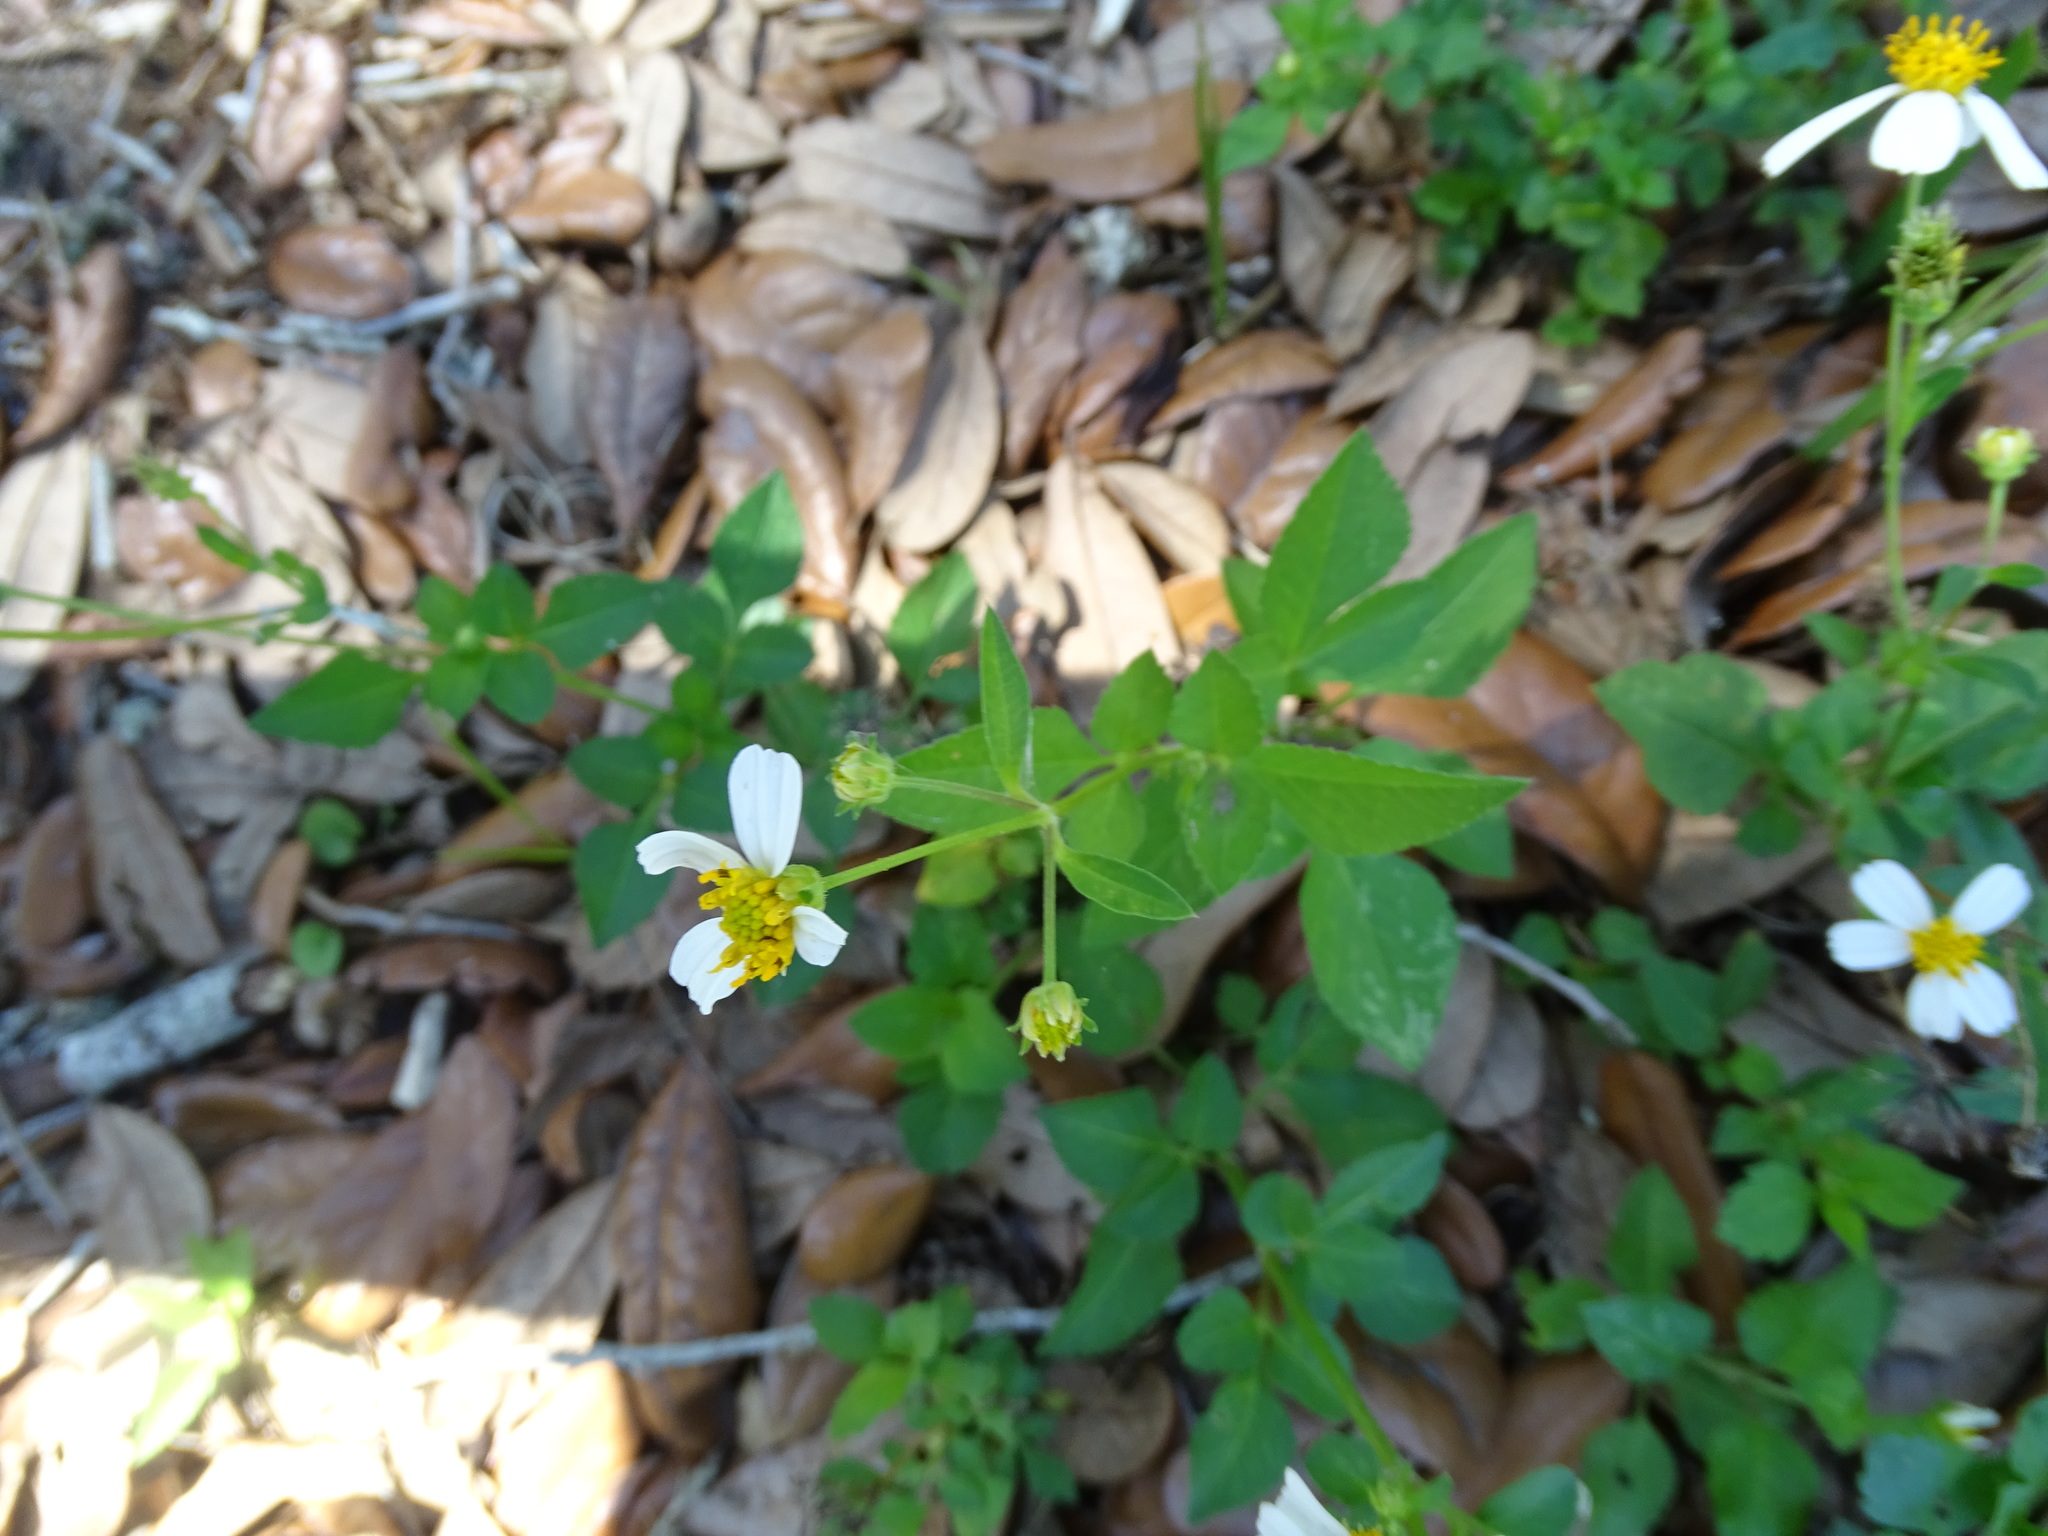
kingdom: Plantae
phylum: Tracheophyta
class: Magnoliopsida
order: Asterales
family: Asteraceae
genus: Bidens
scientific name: Bidens alba
